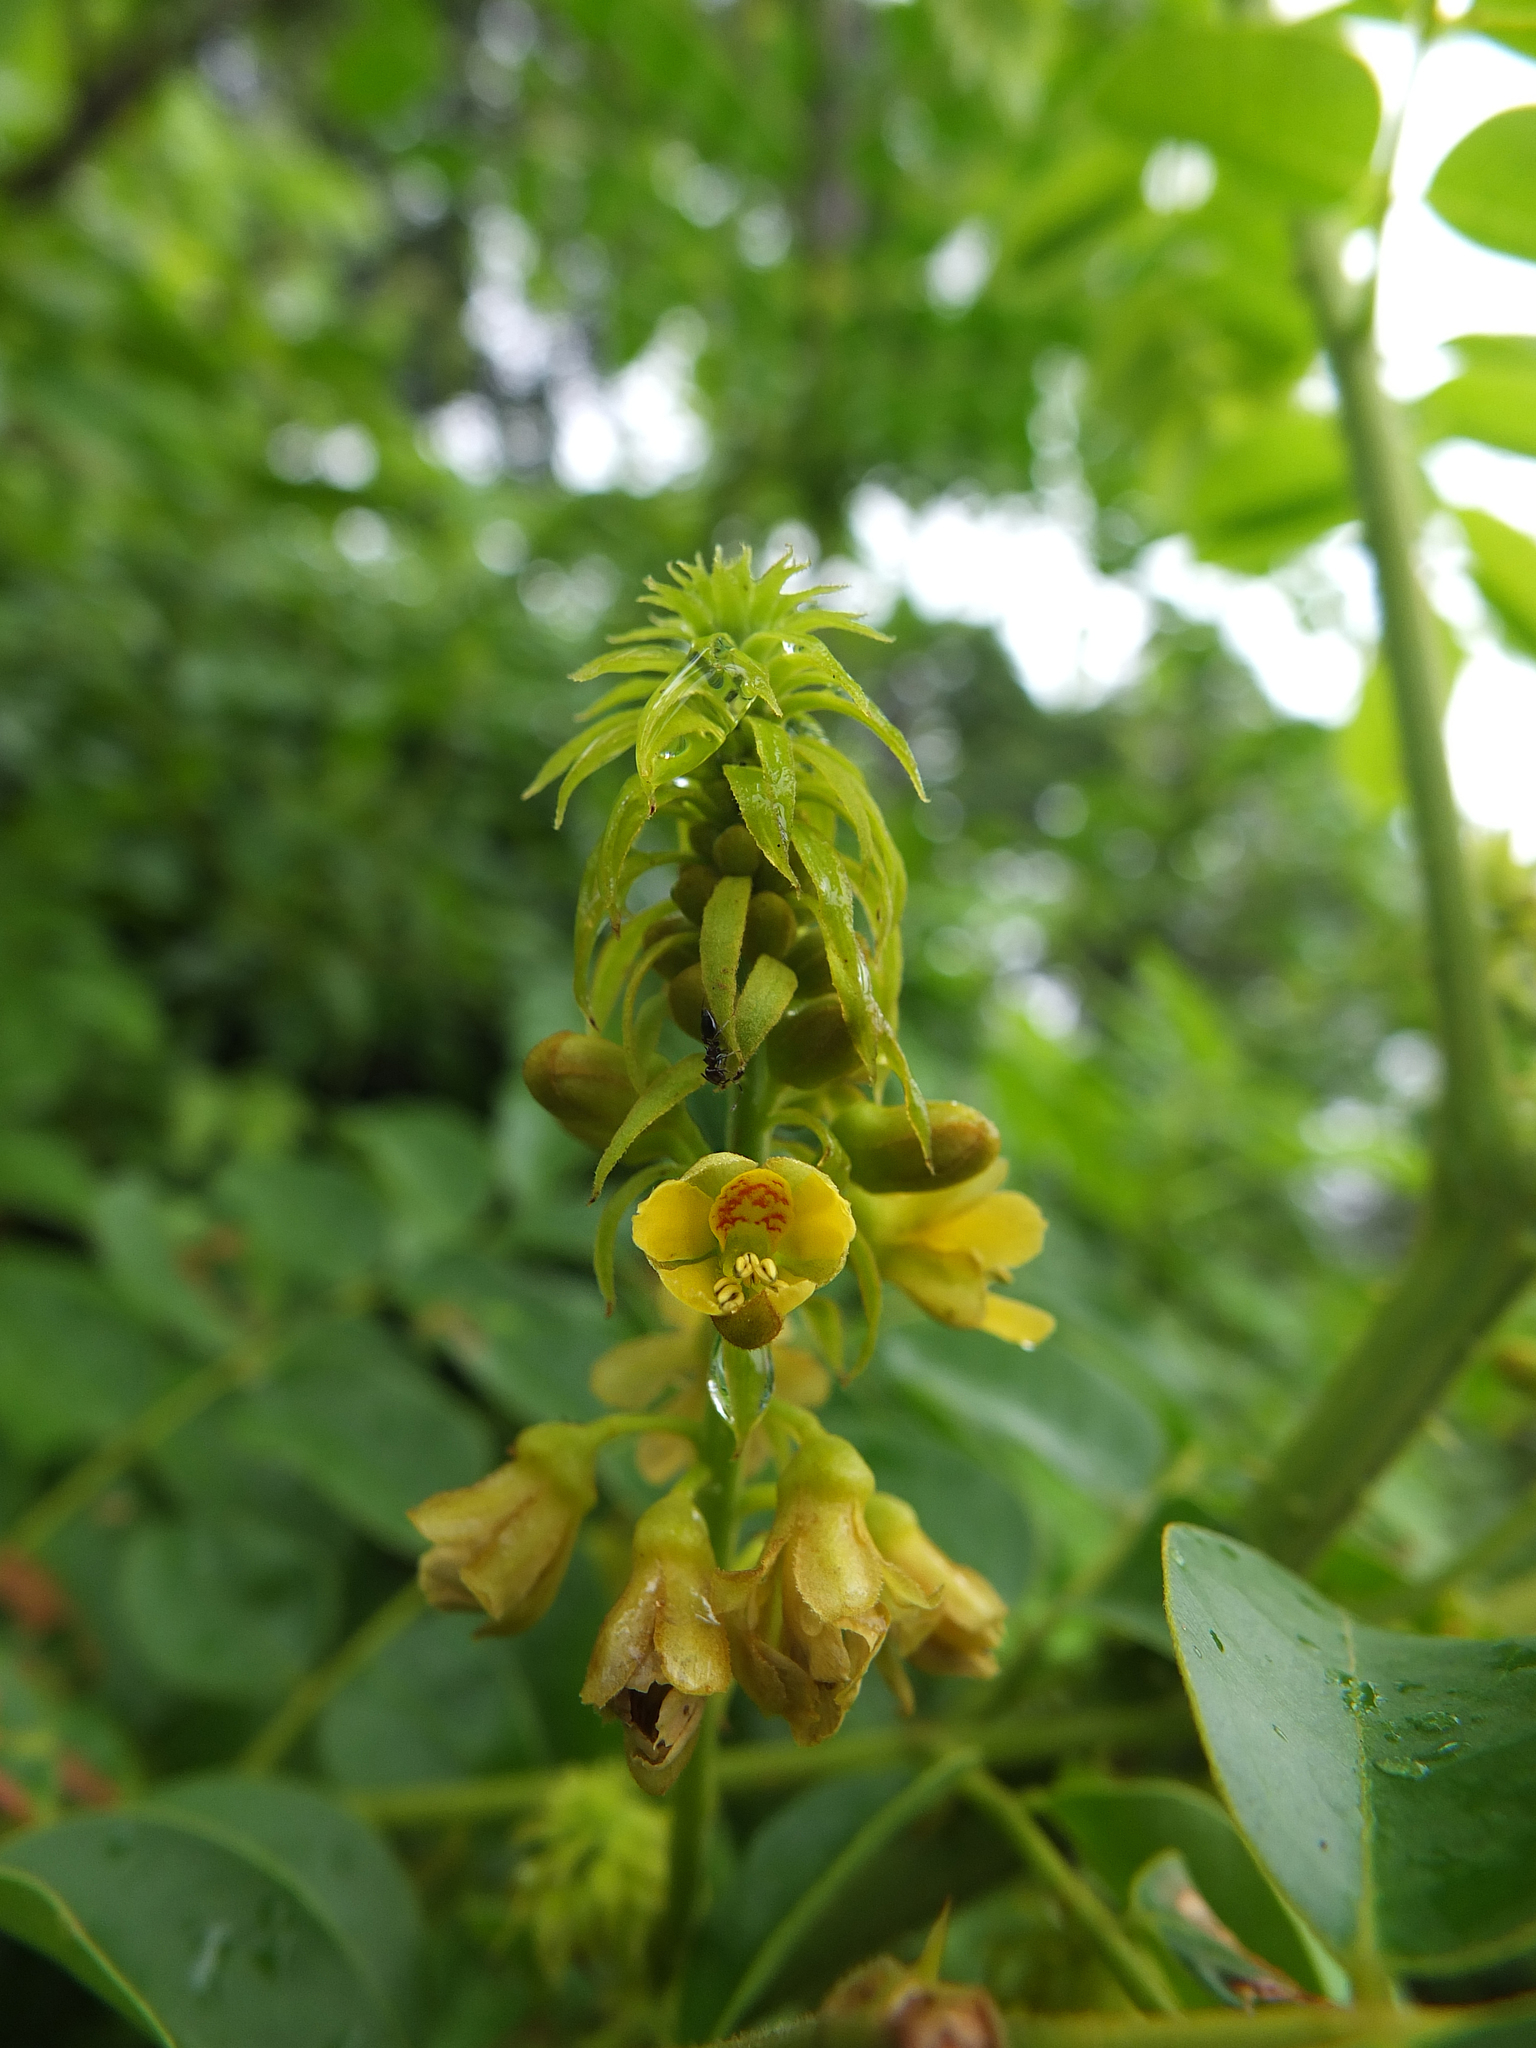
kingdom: Plantae
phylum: Tracheophyta
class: Magnoliopsida
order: Fabales
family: Fabaceae
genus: Guilandina
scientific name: Guilandina bonduc
